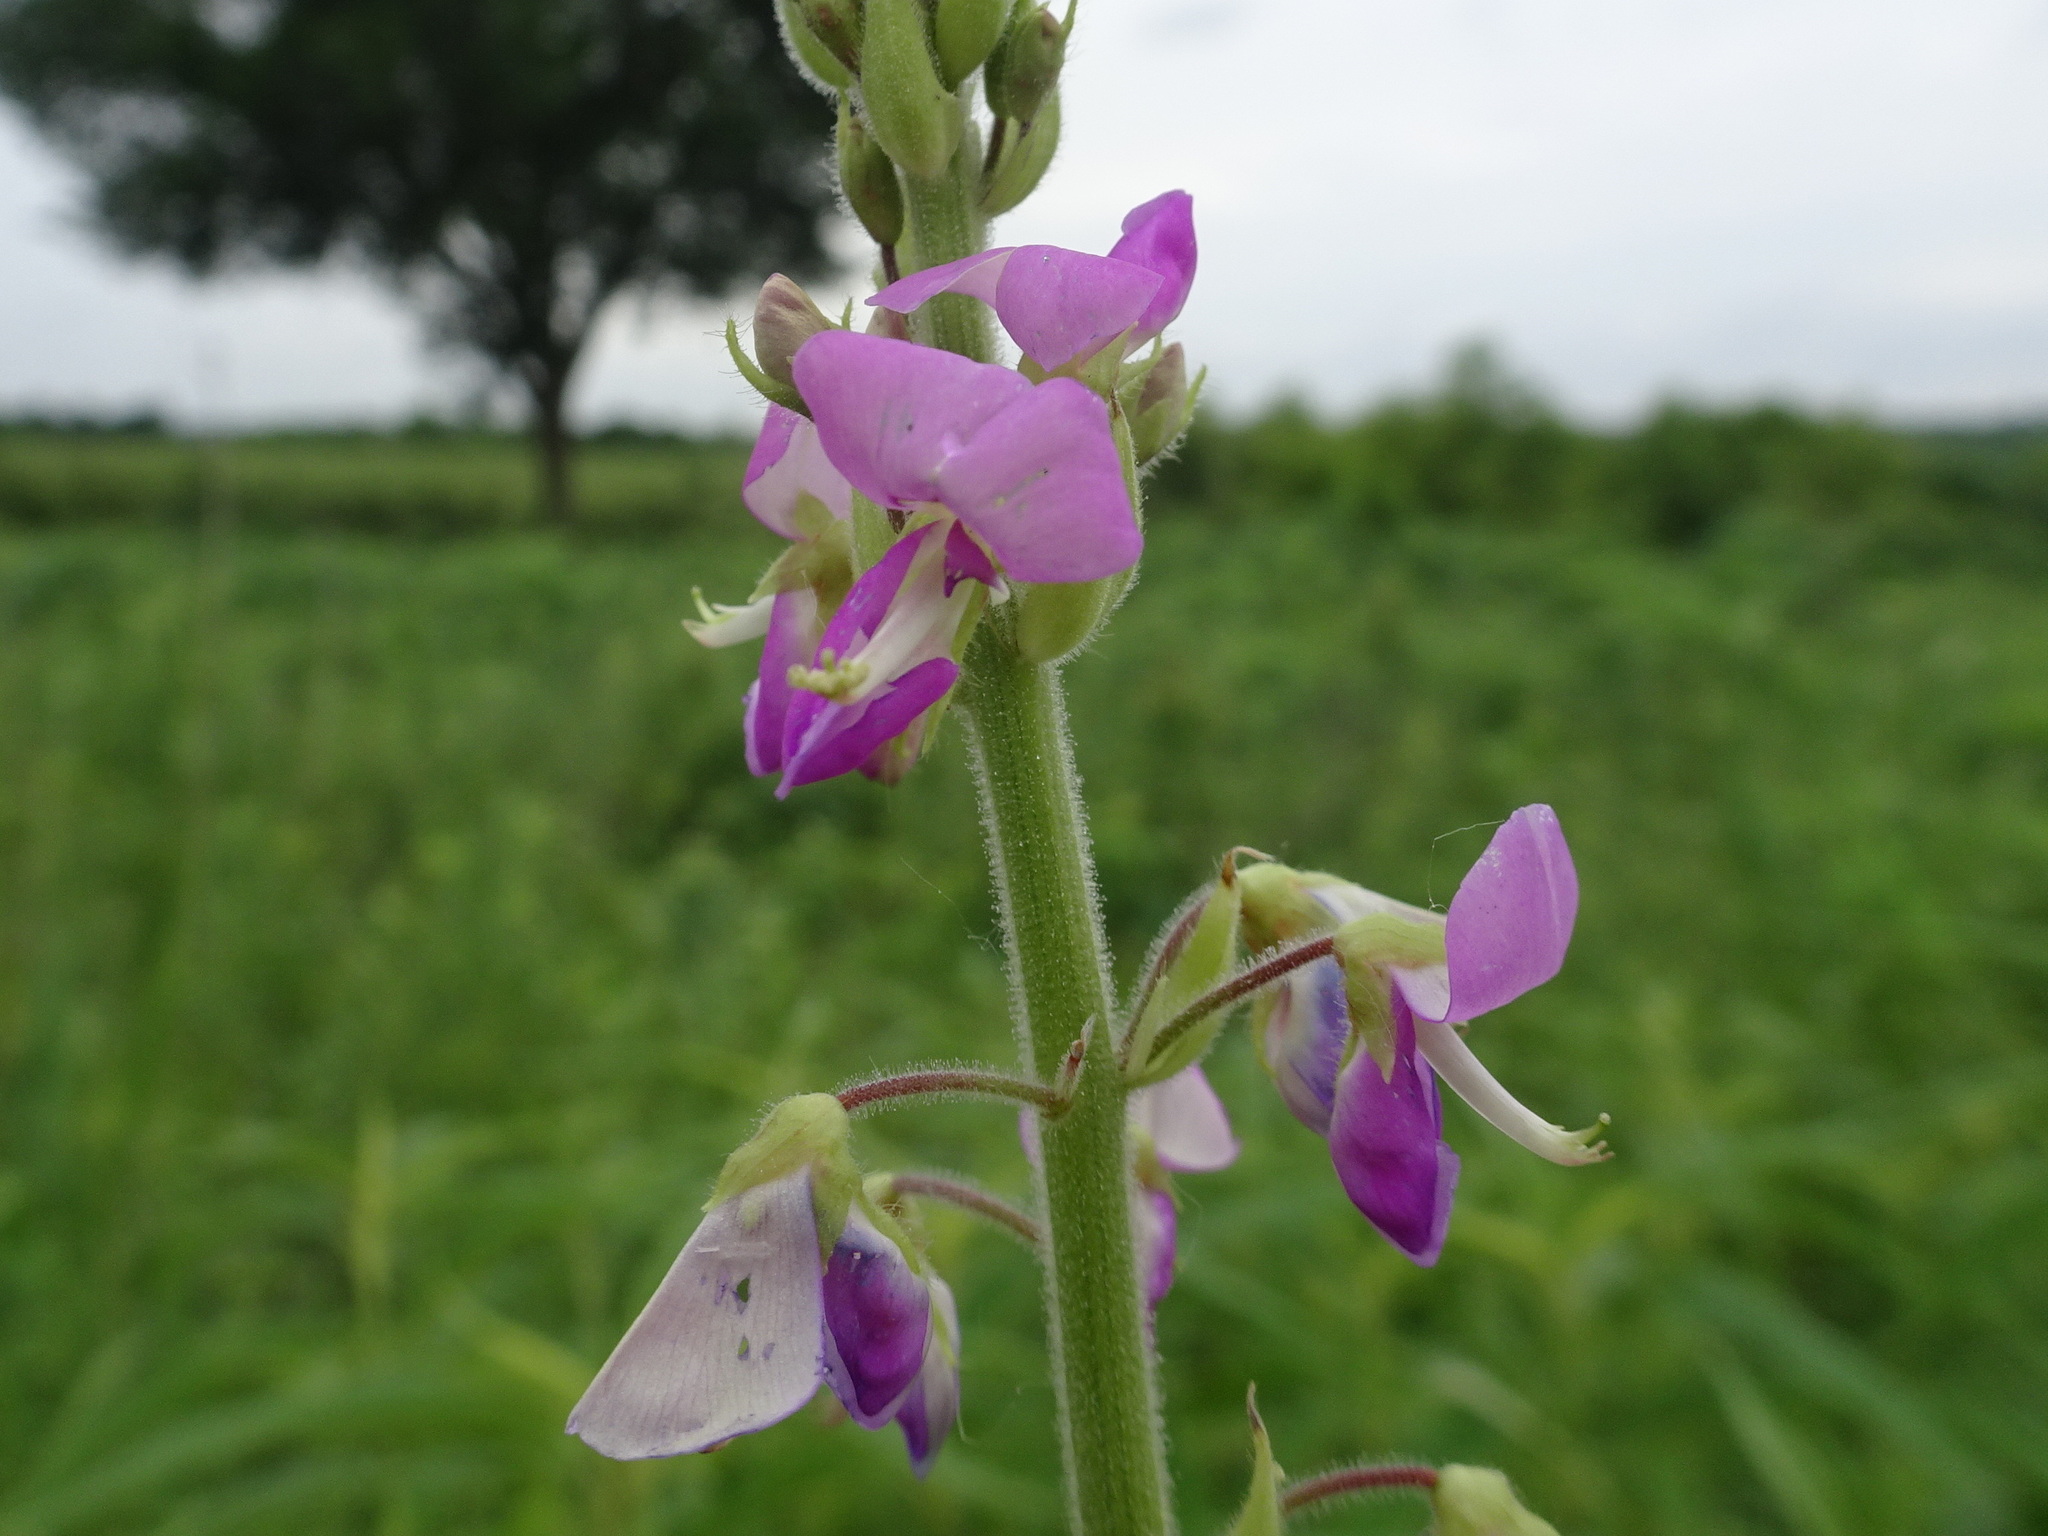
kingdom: Plantae
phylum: Tracheophyta
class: Magnoliopsida
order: Fabales
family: Fabaceae
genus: Desmodium
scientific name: Desmodium illinoense
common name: Illinois tick-clover
